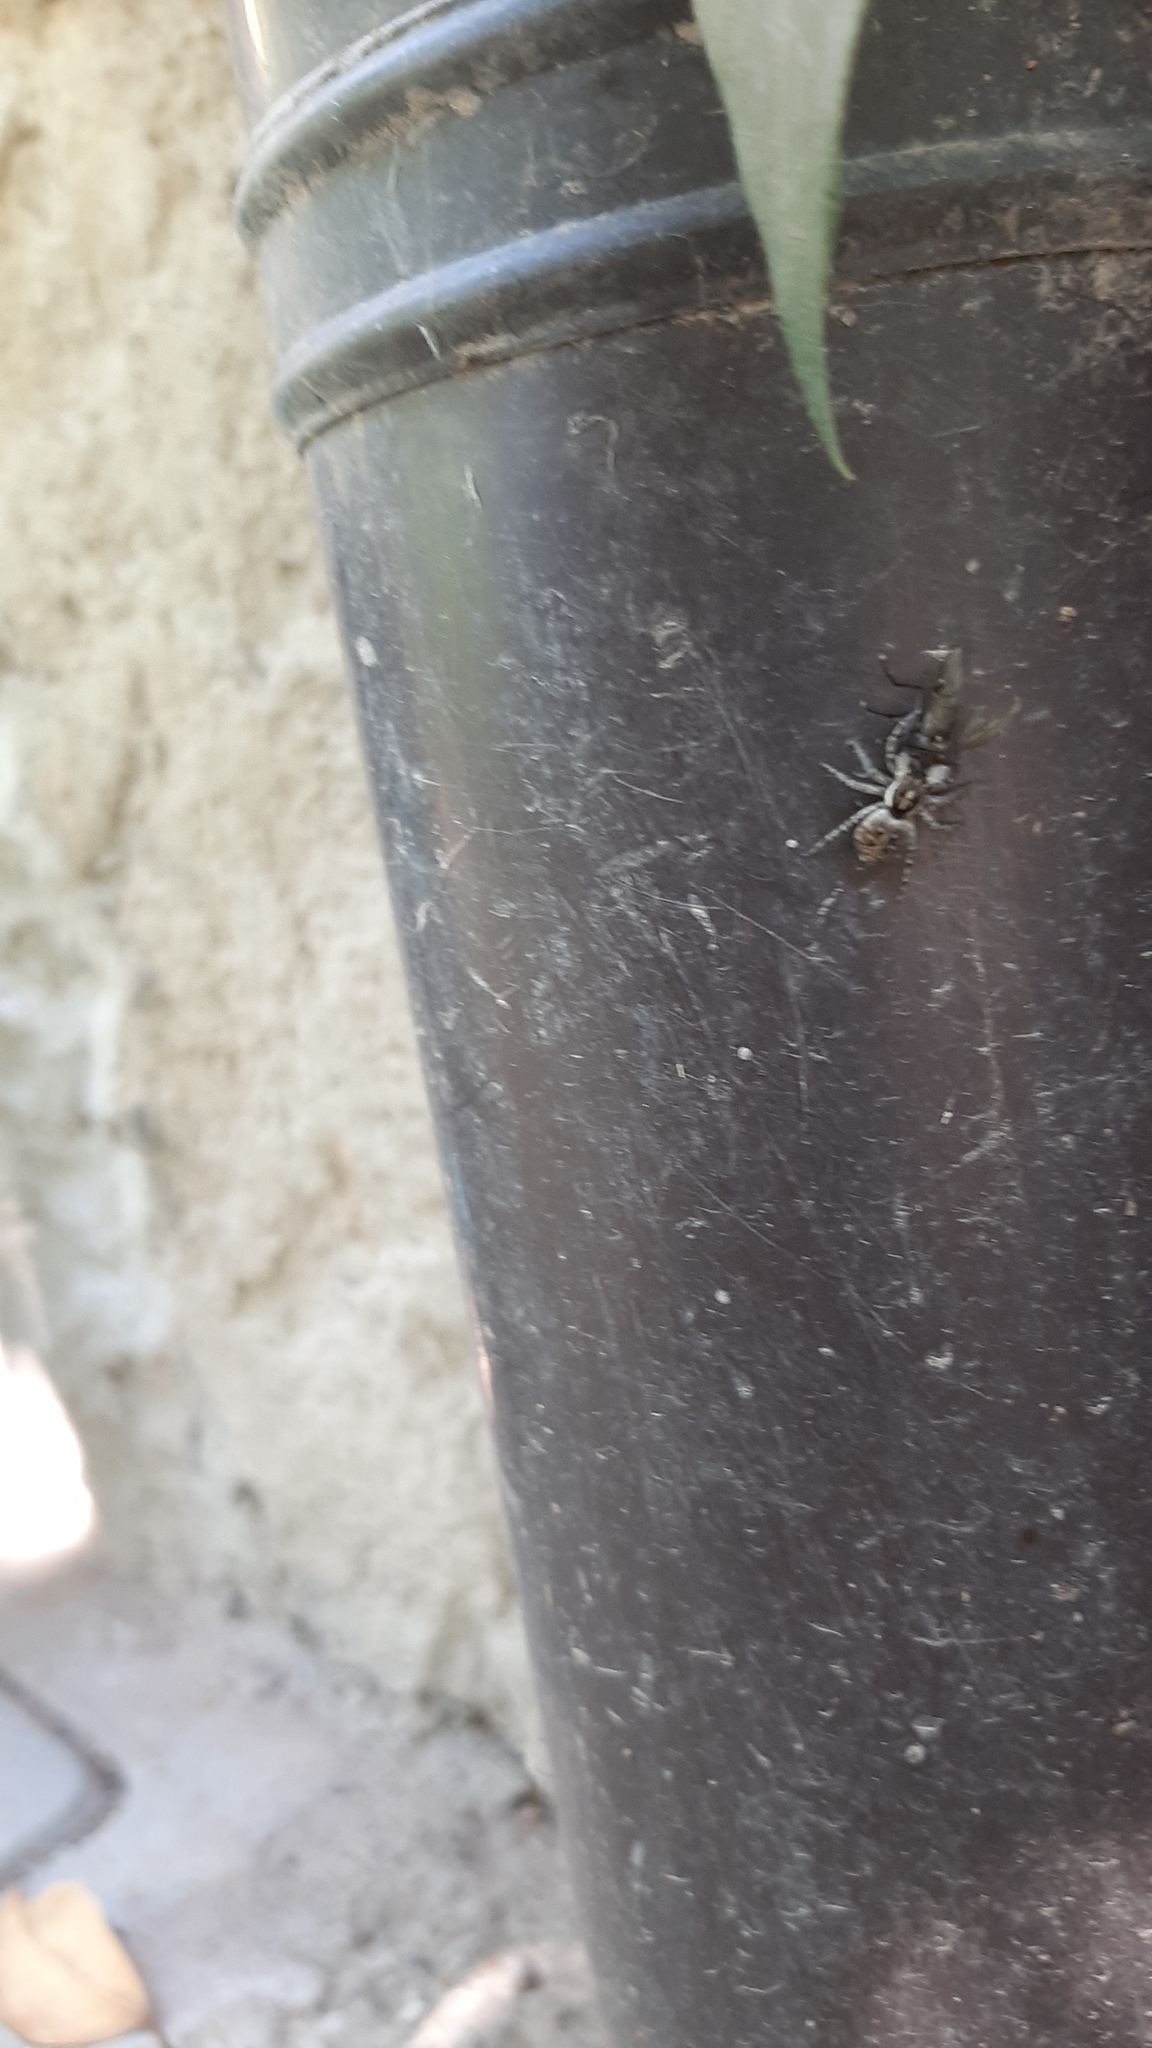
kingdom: Animalia
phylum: Arthropoda
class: Arachnida
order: Araneae
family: Salticidae
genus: Menemerus
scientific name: Menemerus semilimbatus
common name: Jumping spider
